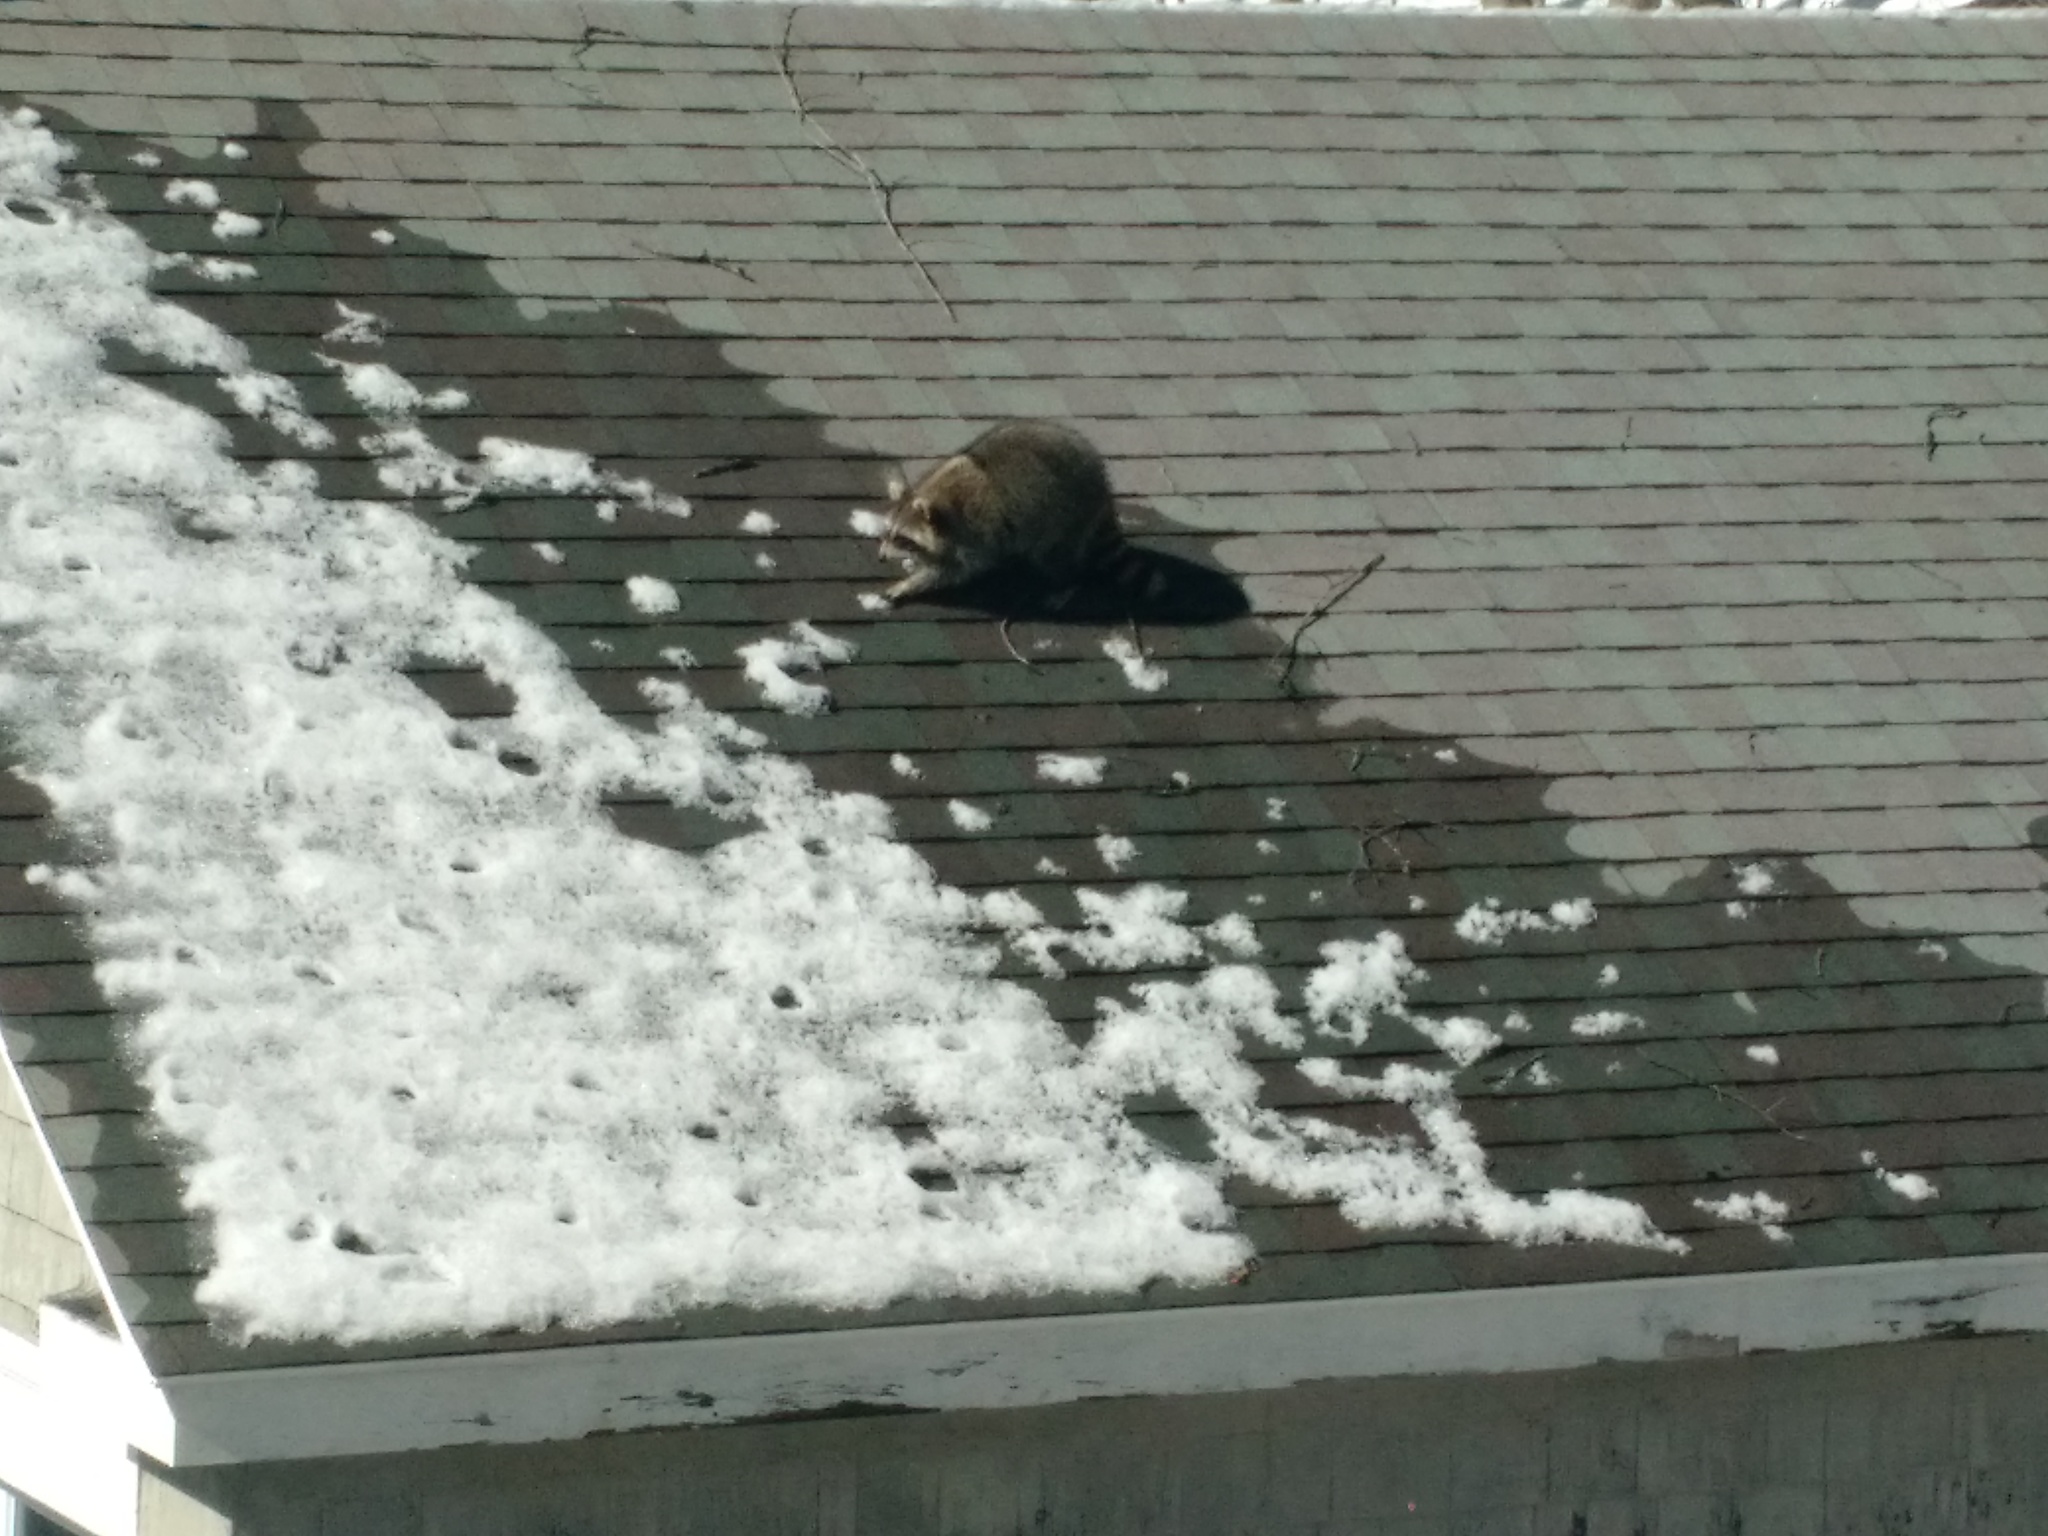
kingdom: Animalia
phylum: Chordata
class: Mammalia
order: Carnivora
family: Procyonidae
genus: Procyon
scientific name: Procyon lotor
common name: Raccoon
